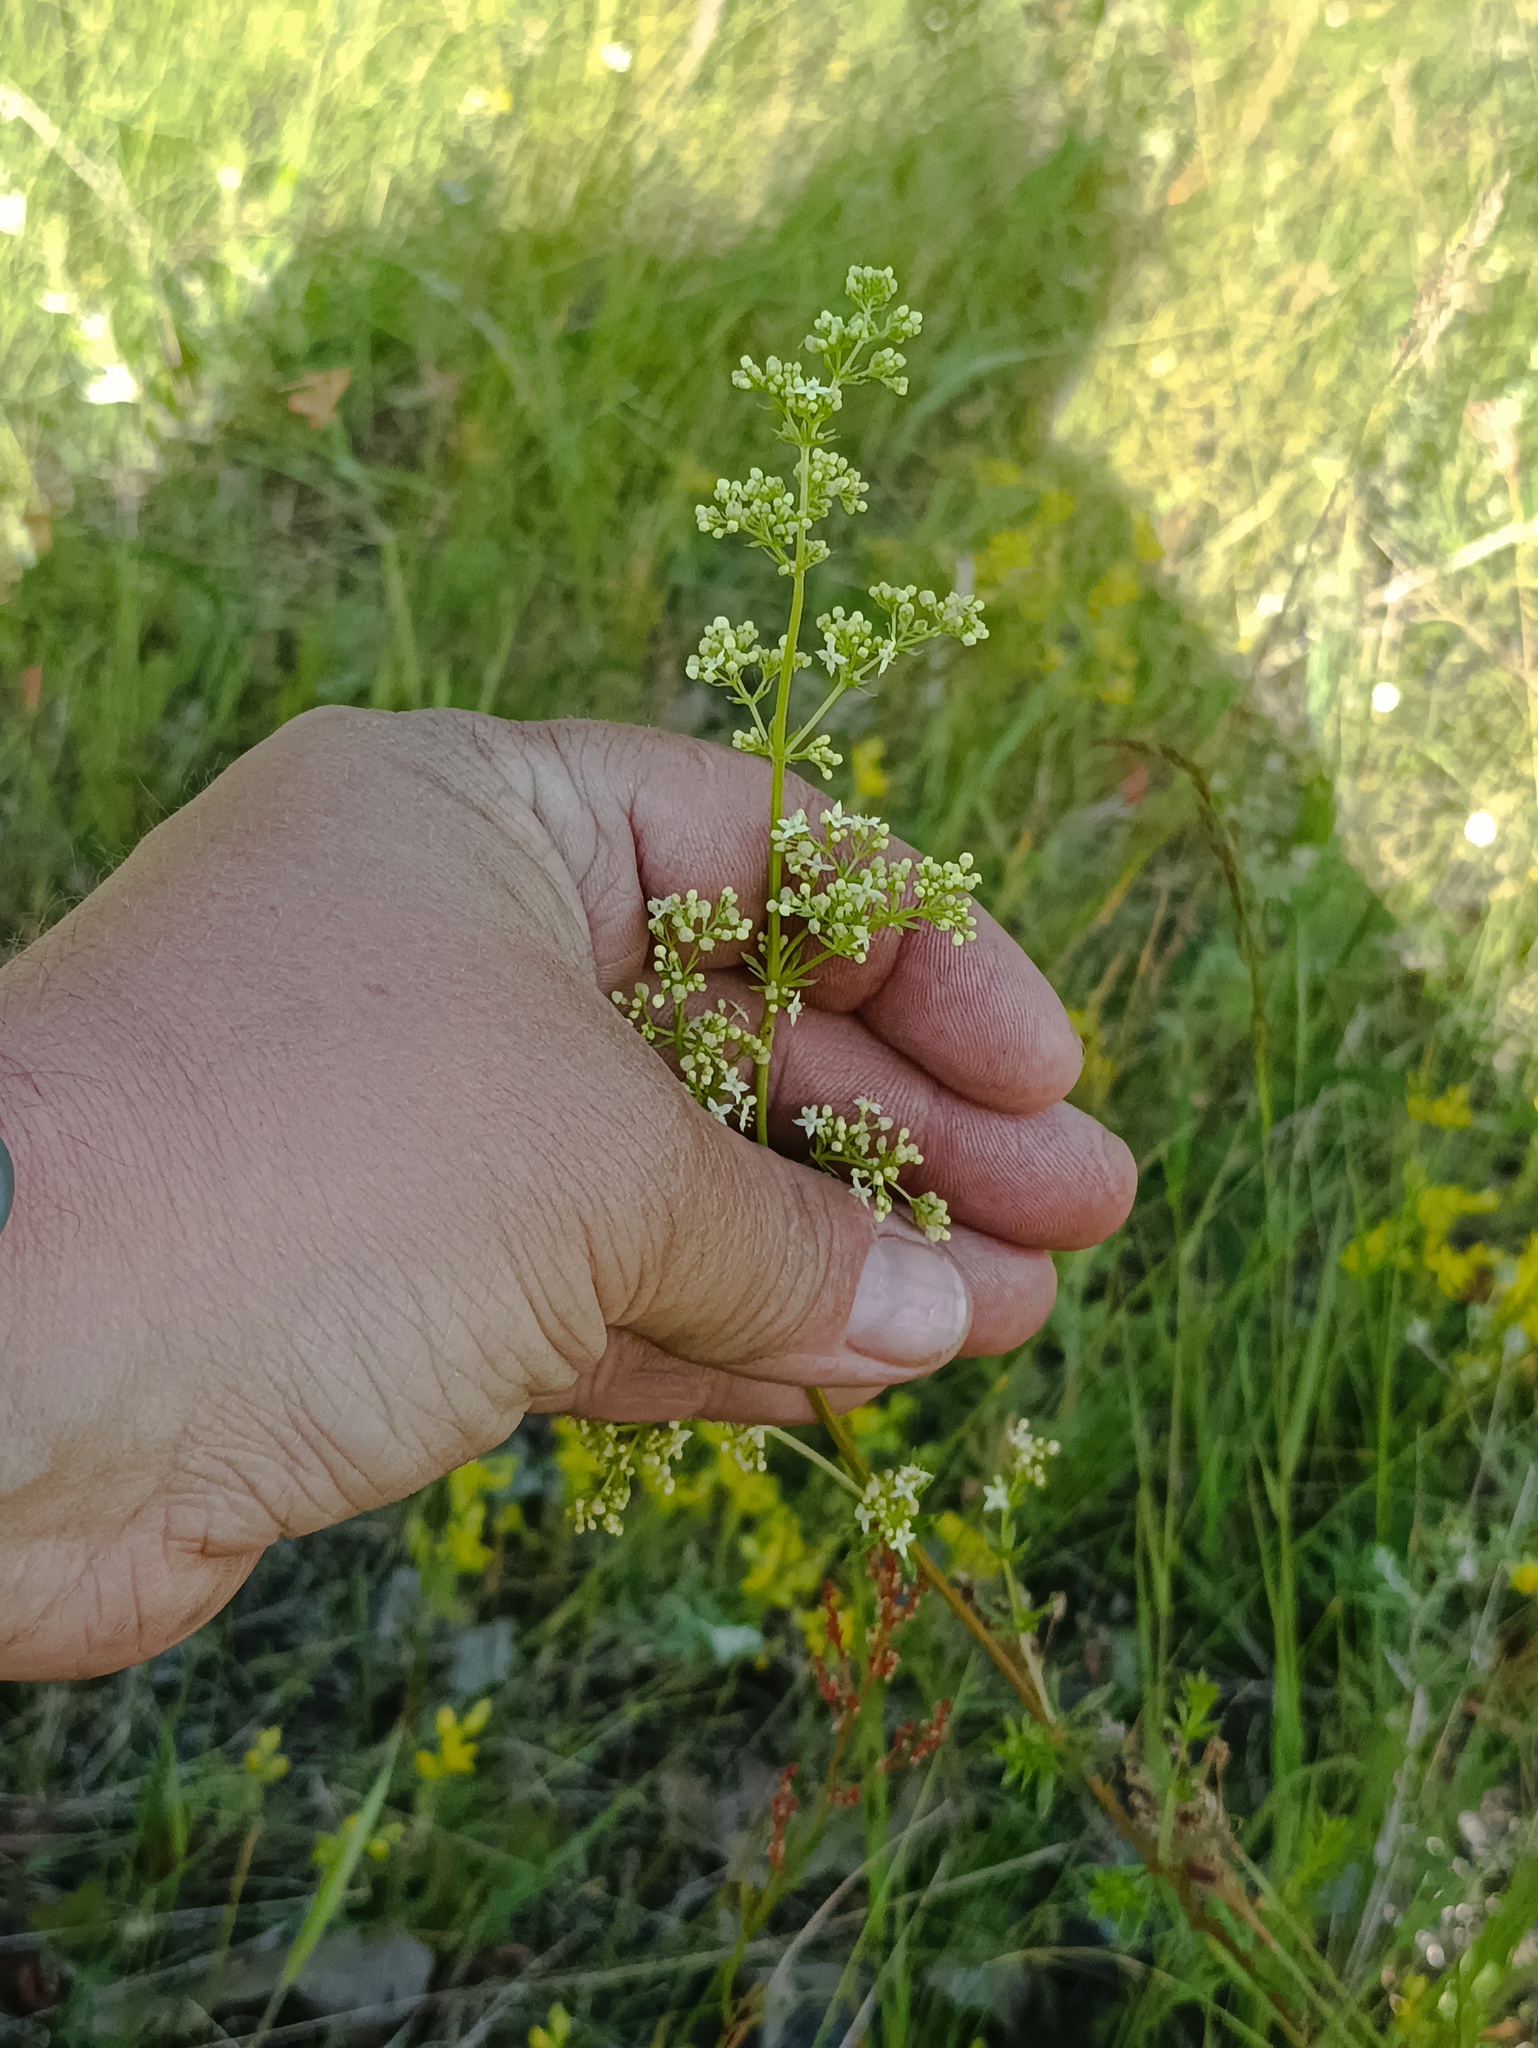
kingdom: Plantae
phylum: Tracheophyta
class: Magnoliopsida
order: Gentianales
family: Rubiaceae
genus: Galium
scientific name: Galium mollugo
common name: Hedge bedstraw
